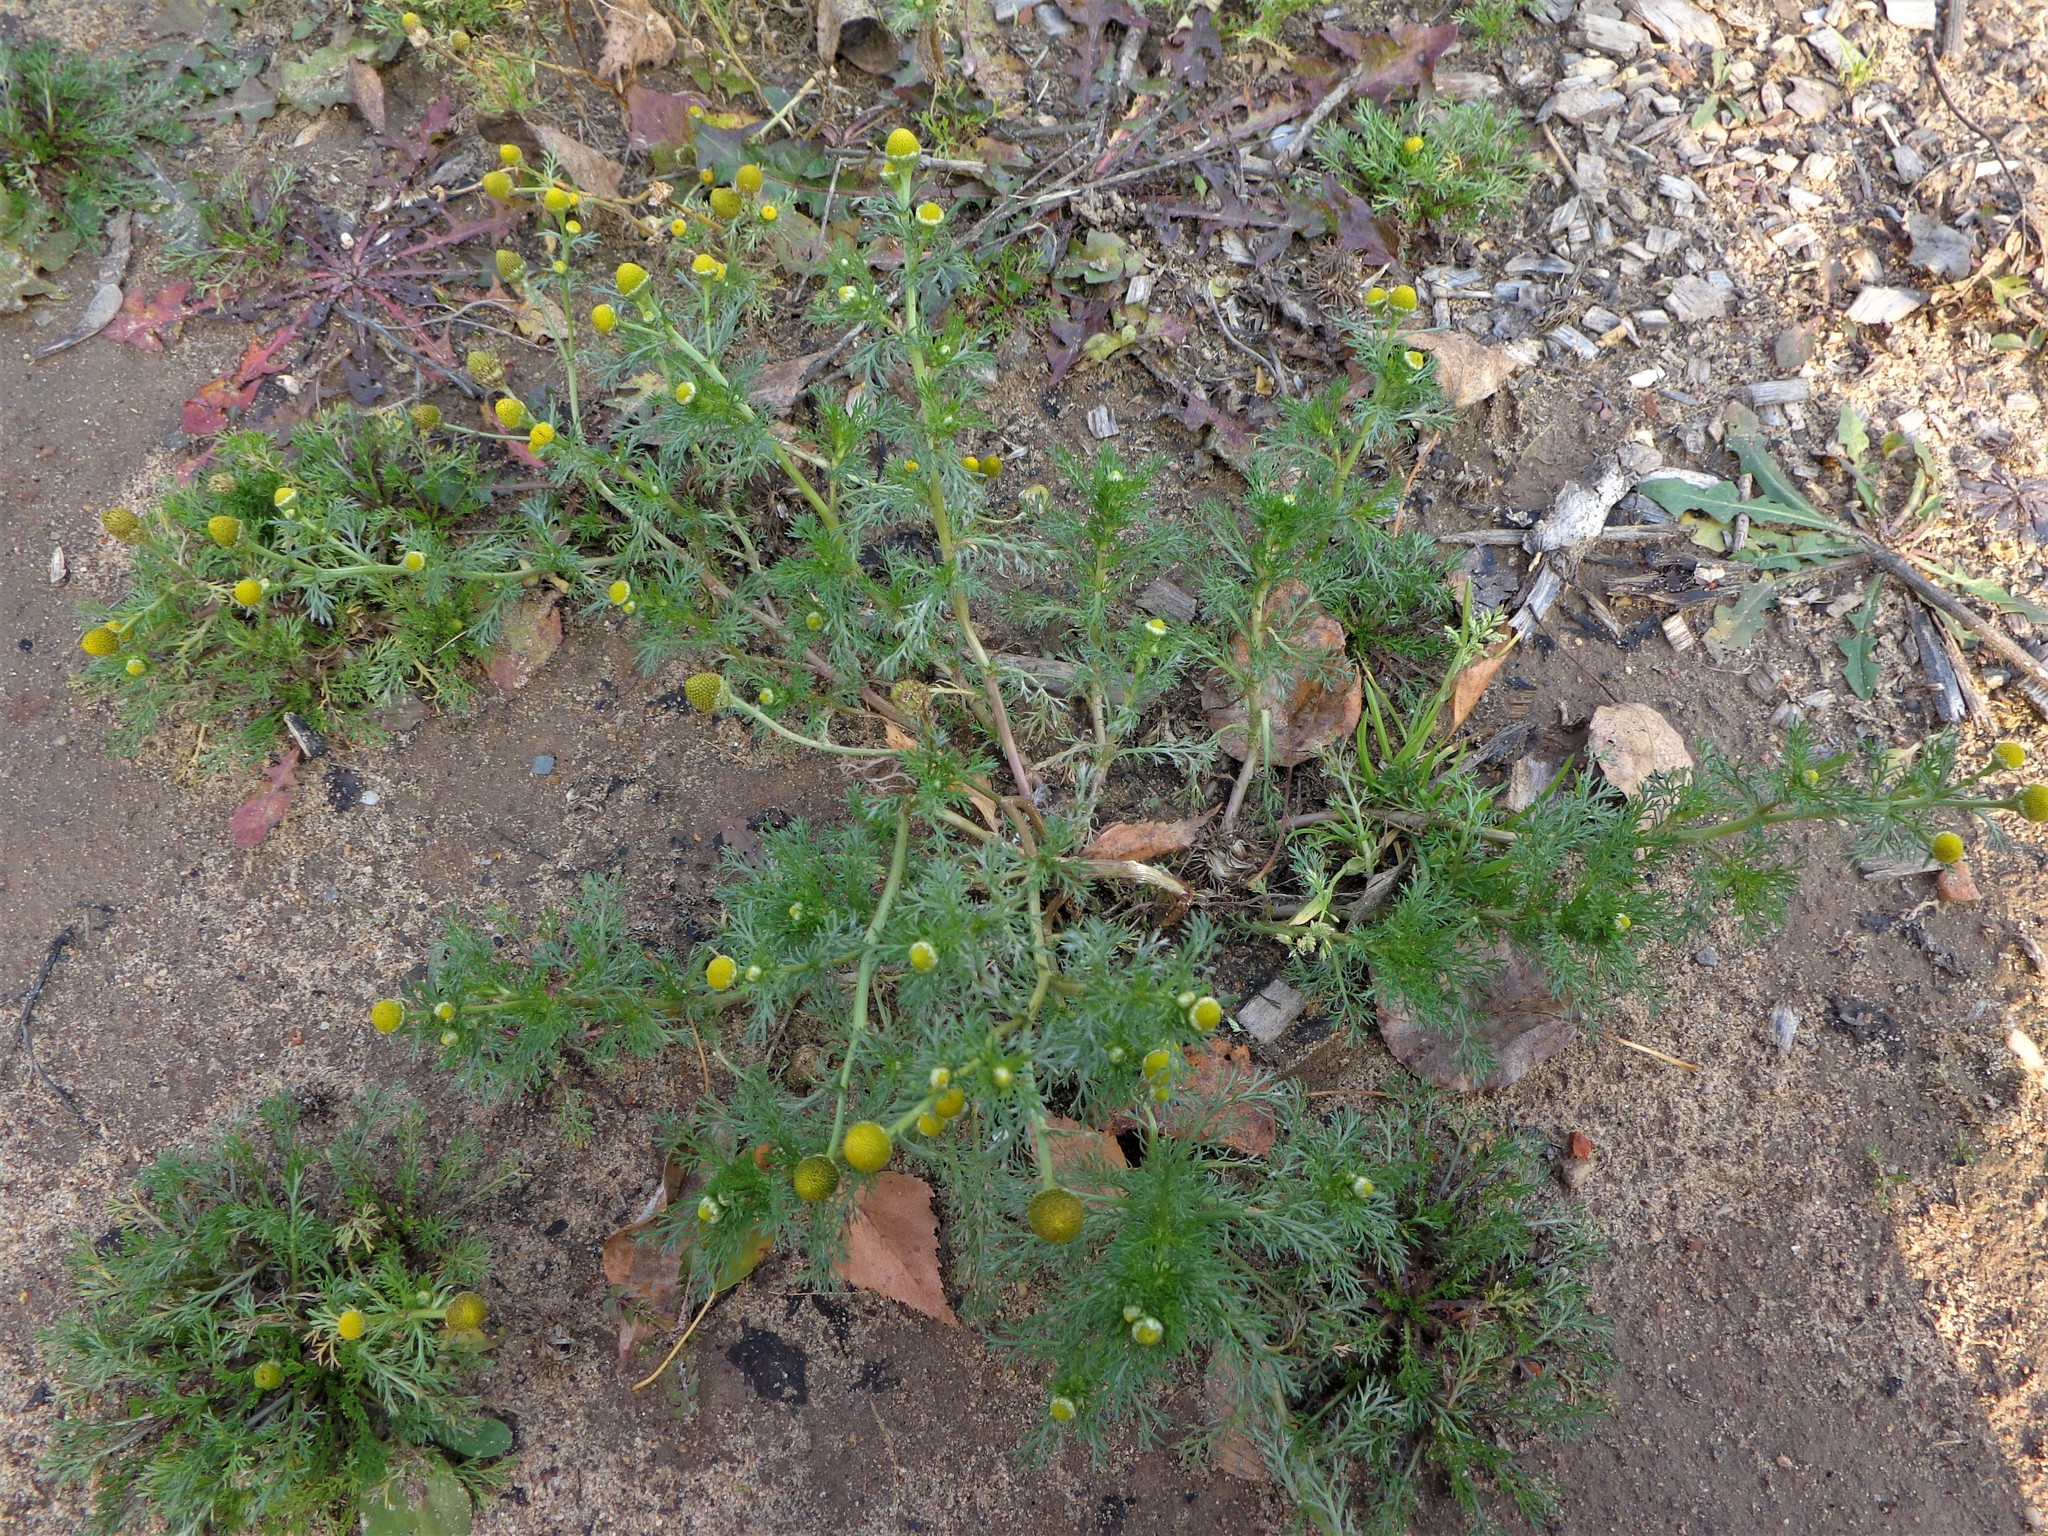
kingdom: Plantae
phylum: Tracheophyta
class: Magnoliopsida
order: Asterales
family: Asteraceae
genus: Matricaria
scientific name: Matricaria discoidea
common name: Disc mayweed
